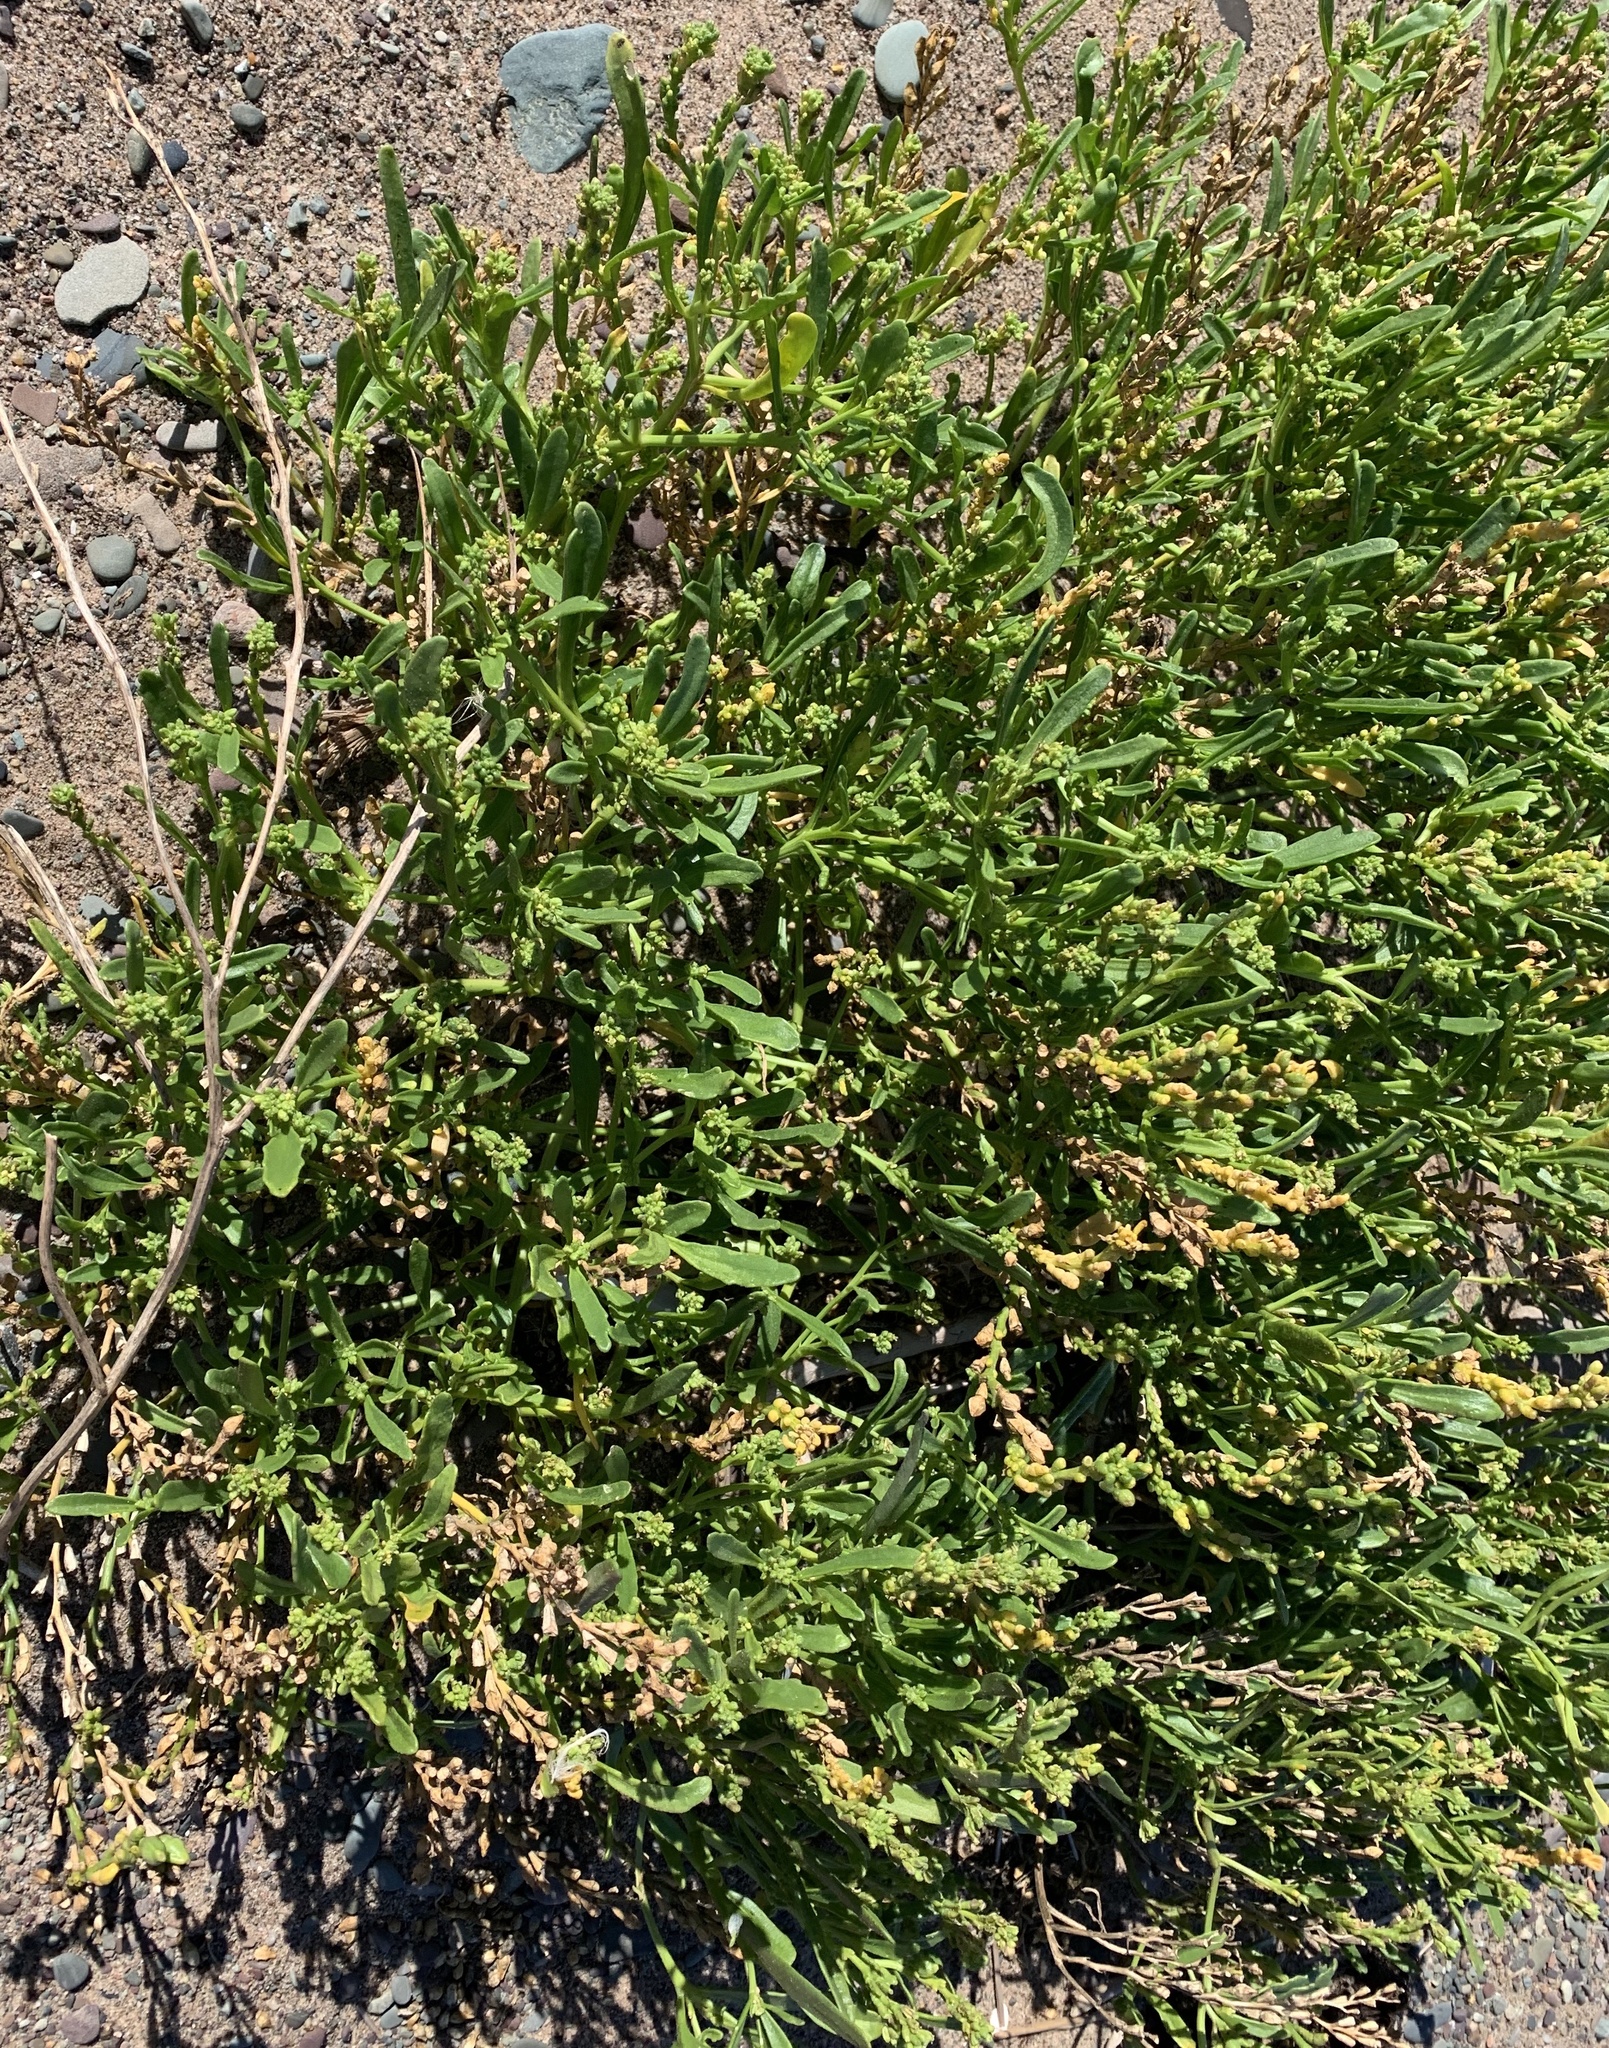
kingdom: Plantae
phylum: Tracheophyta
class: Magnoliopsida
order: Brassicales
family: Brassicaceae
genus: Cakile
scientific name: Cakile edentula
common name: American sea rocket
